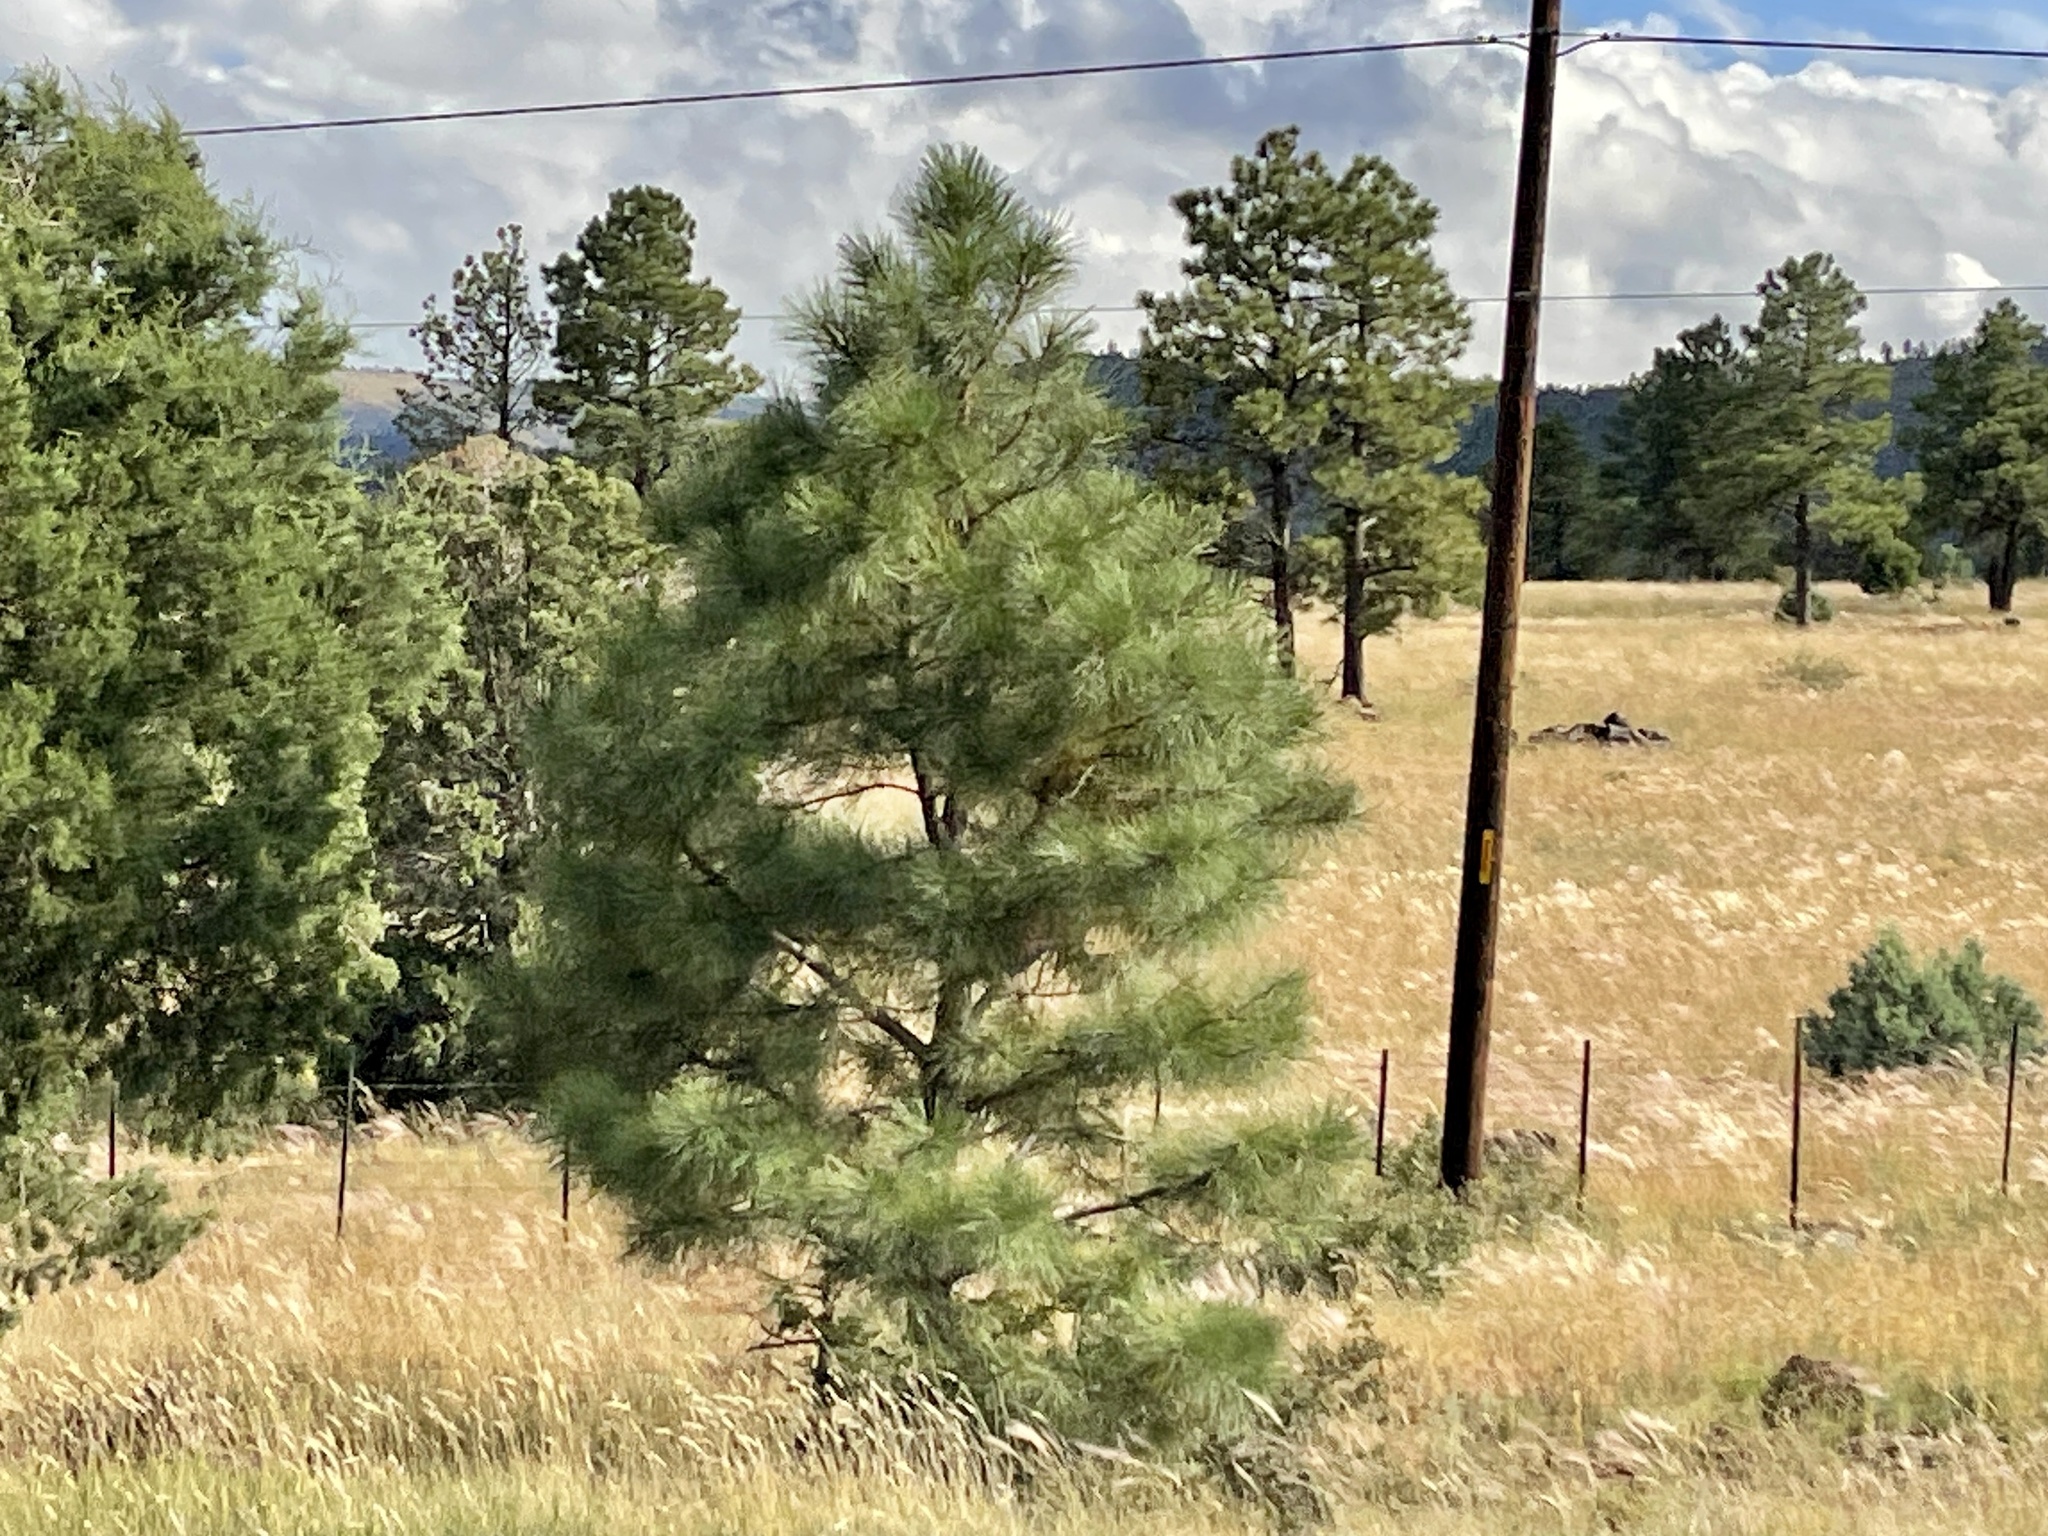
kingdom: Plantae
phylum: Tracheophyta
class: Pinopsida
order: Pinales
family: Pinaceae
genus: Pinus
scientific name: Pinus ponderosa
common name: Western yellow-pine
